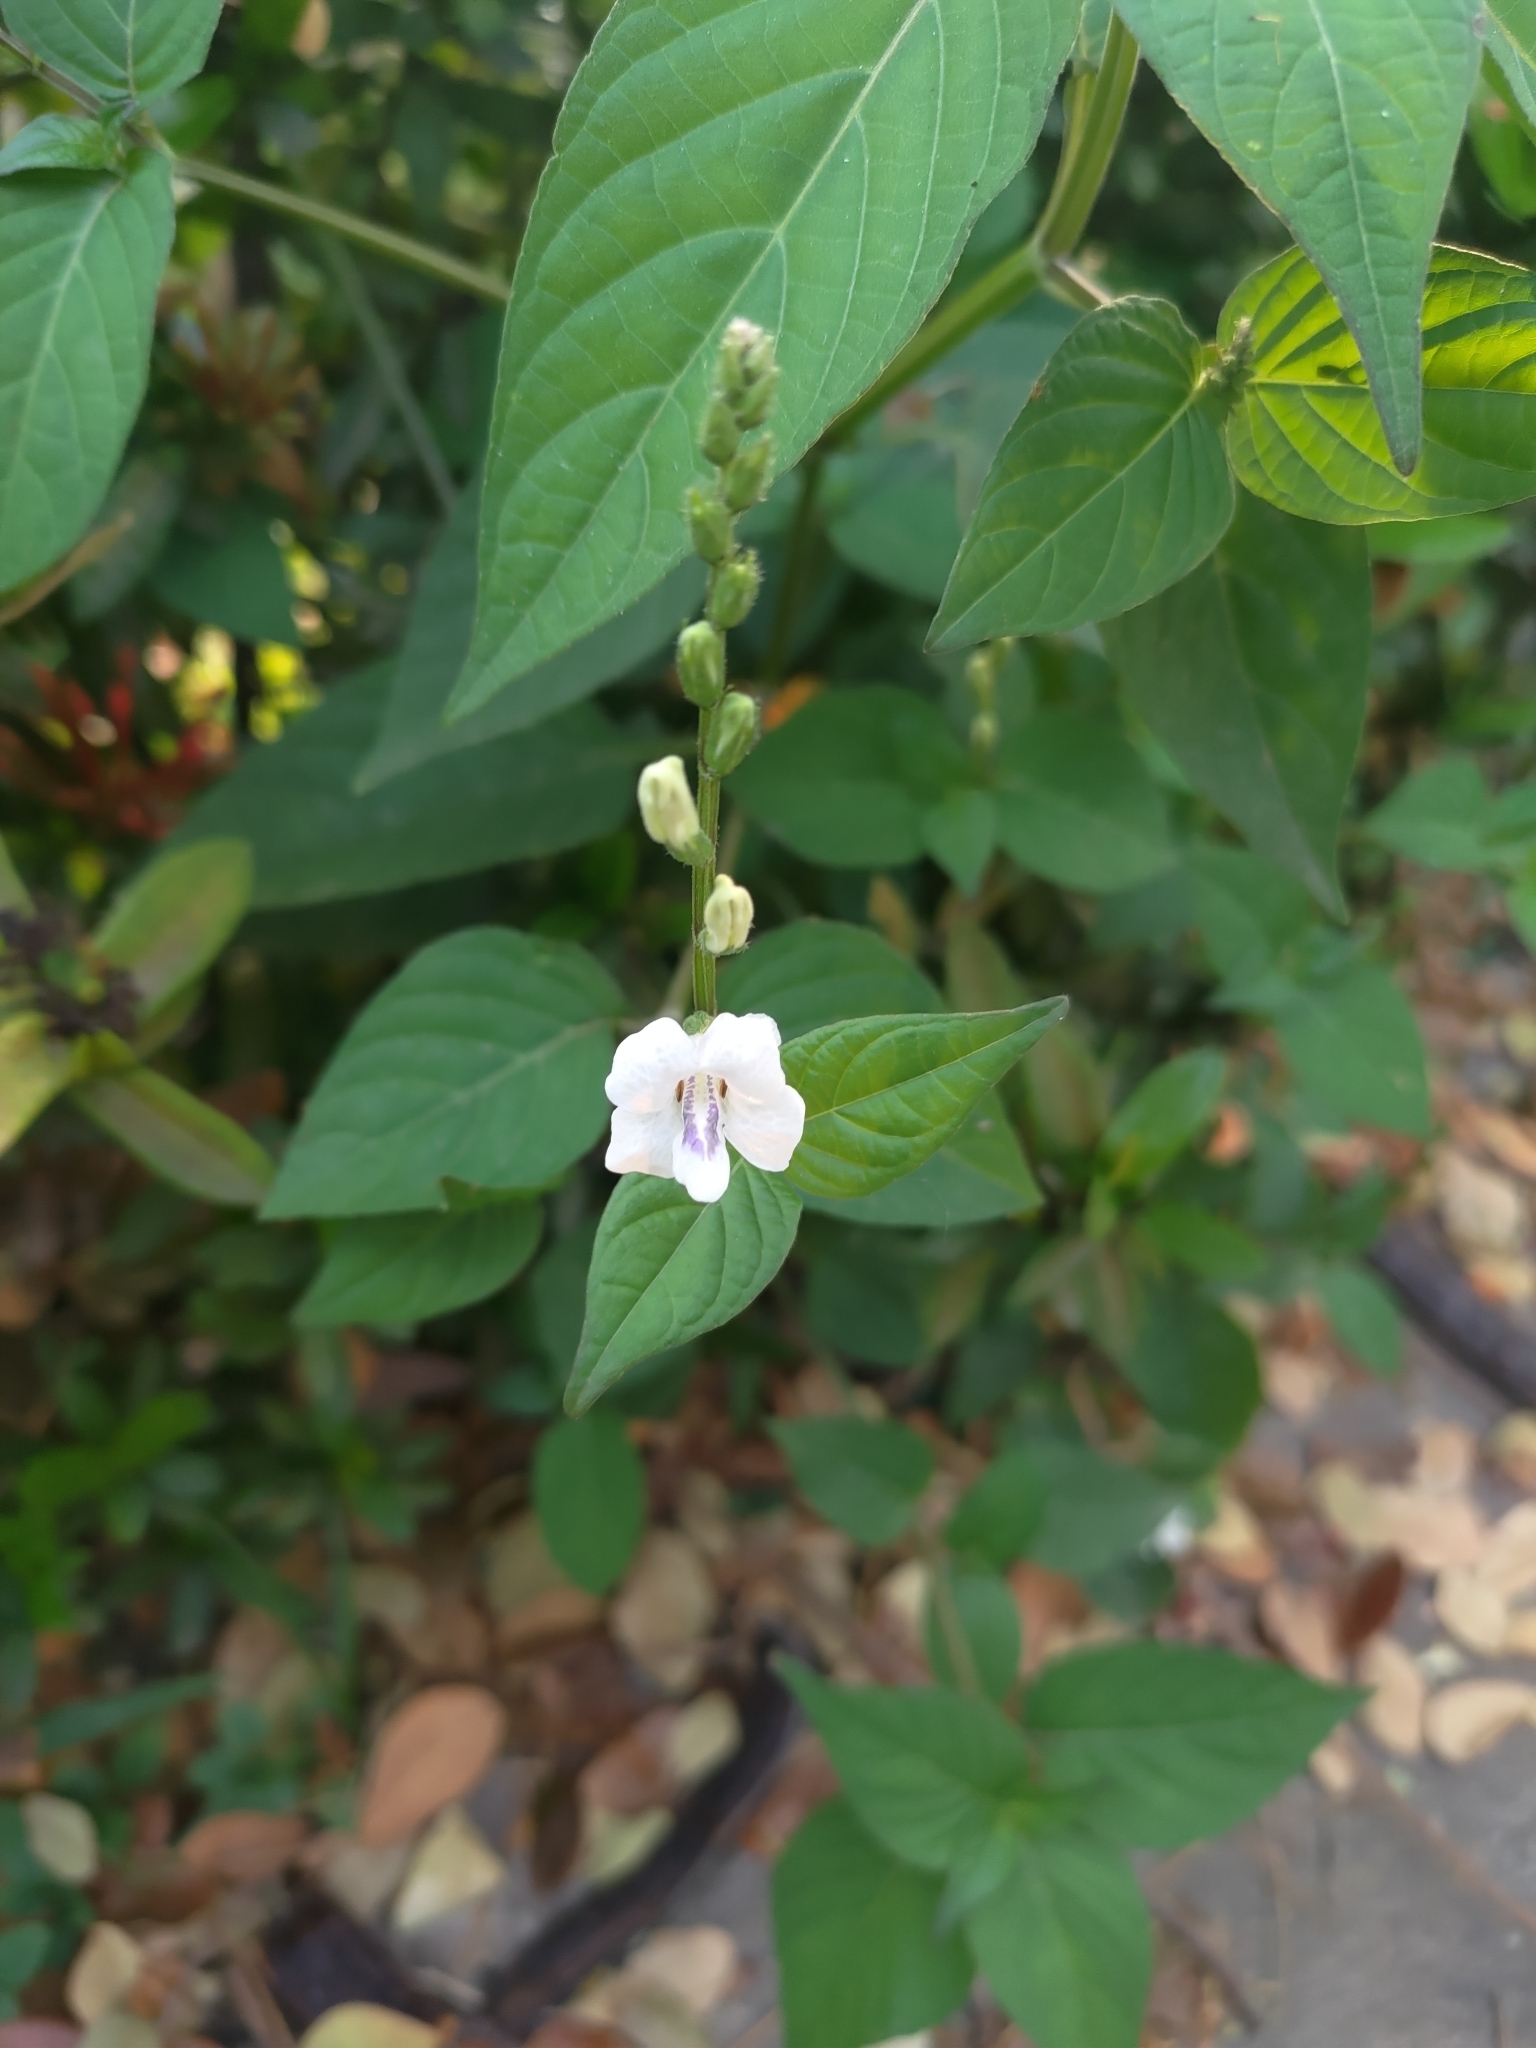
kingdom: Plantae
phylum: Tracheophyta
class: Magnoliopsida
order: Lamiales
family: Acanthaceae
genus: Asystasia
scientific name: Asystasia intrusa
